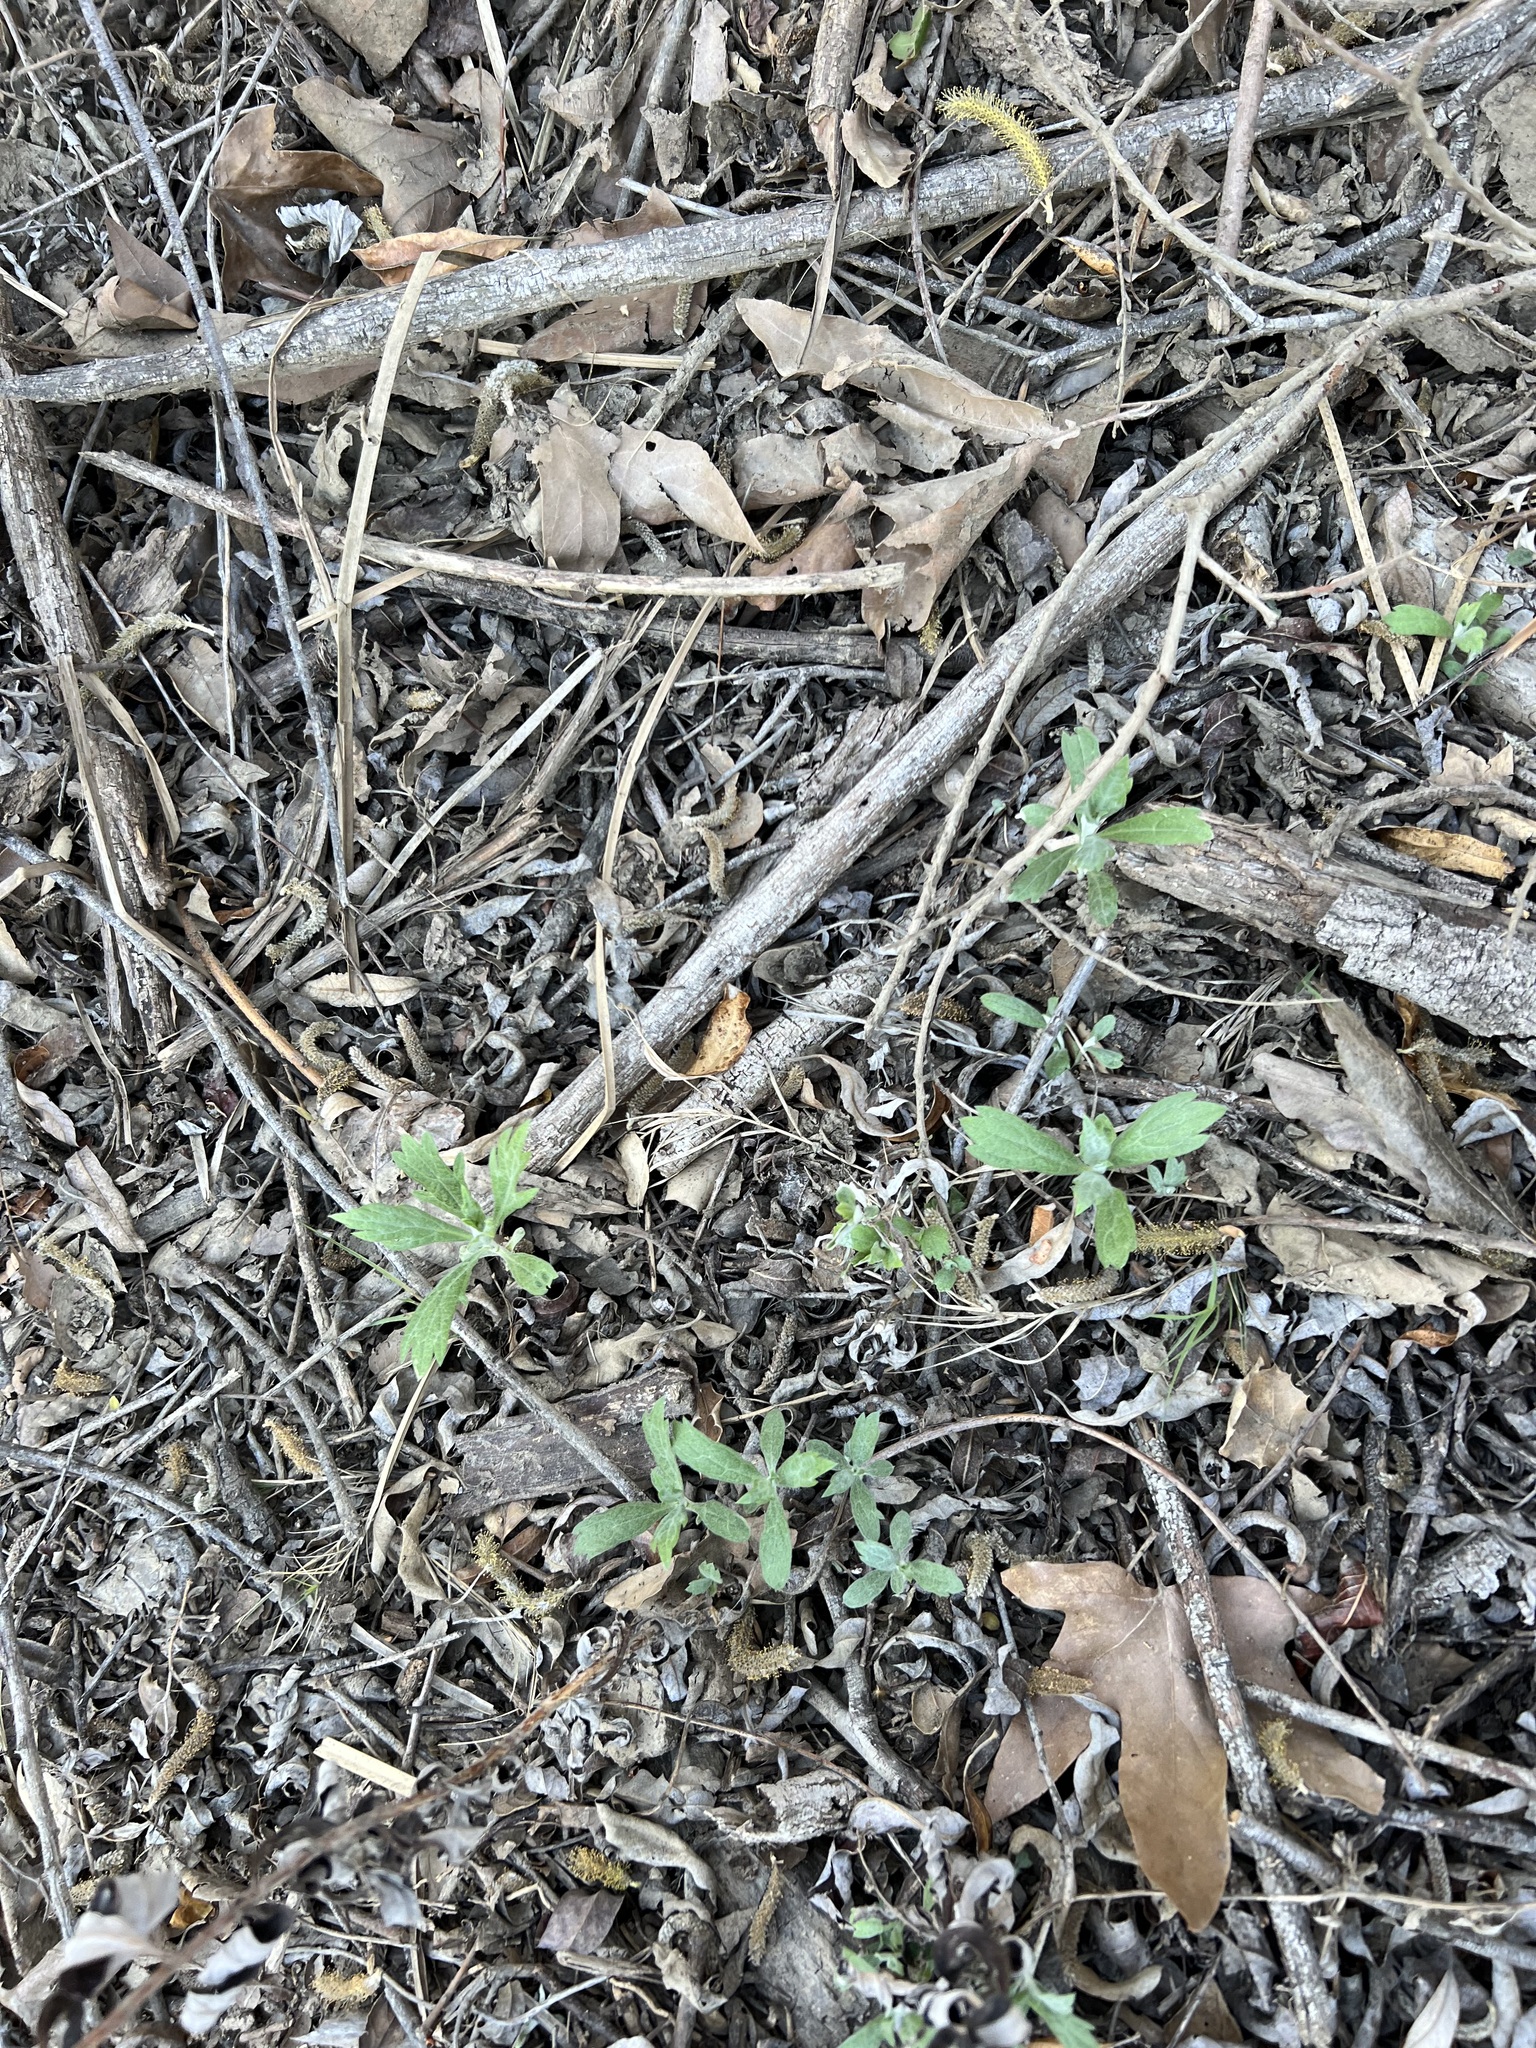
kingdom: Plantae
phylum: Tracheophyta
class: Magnoliopsida
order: Asterales
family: Asteraceae
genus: Artemisia
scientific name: Artemisia douglasiana
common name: Northwest mugwort
